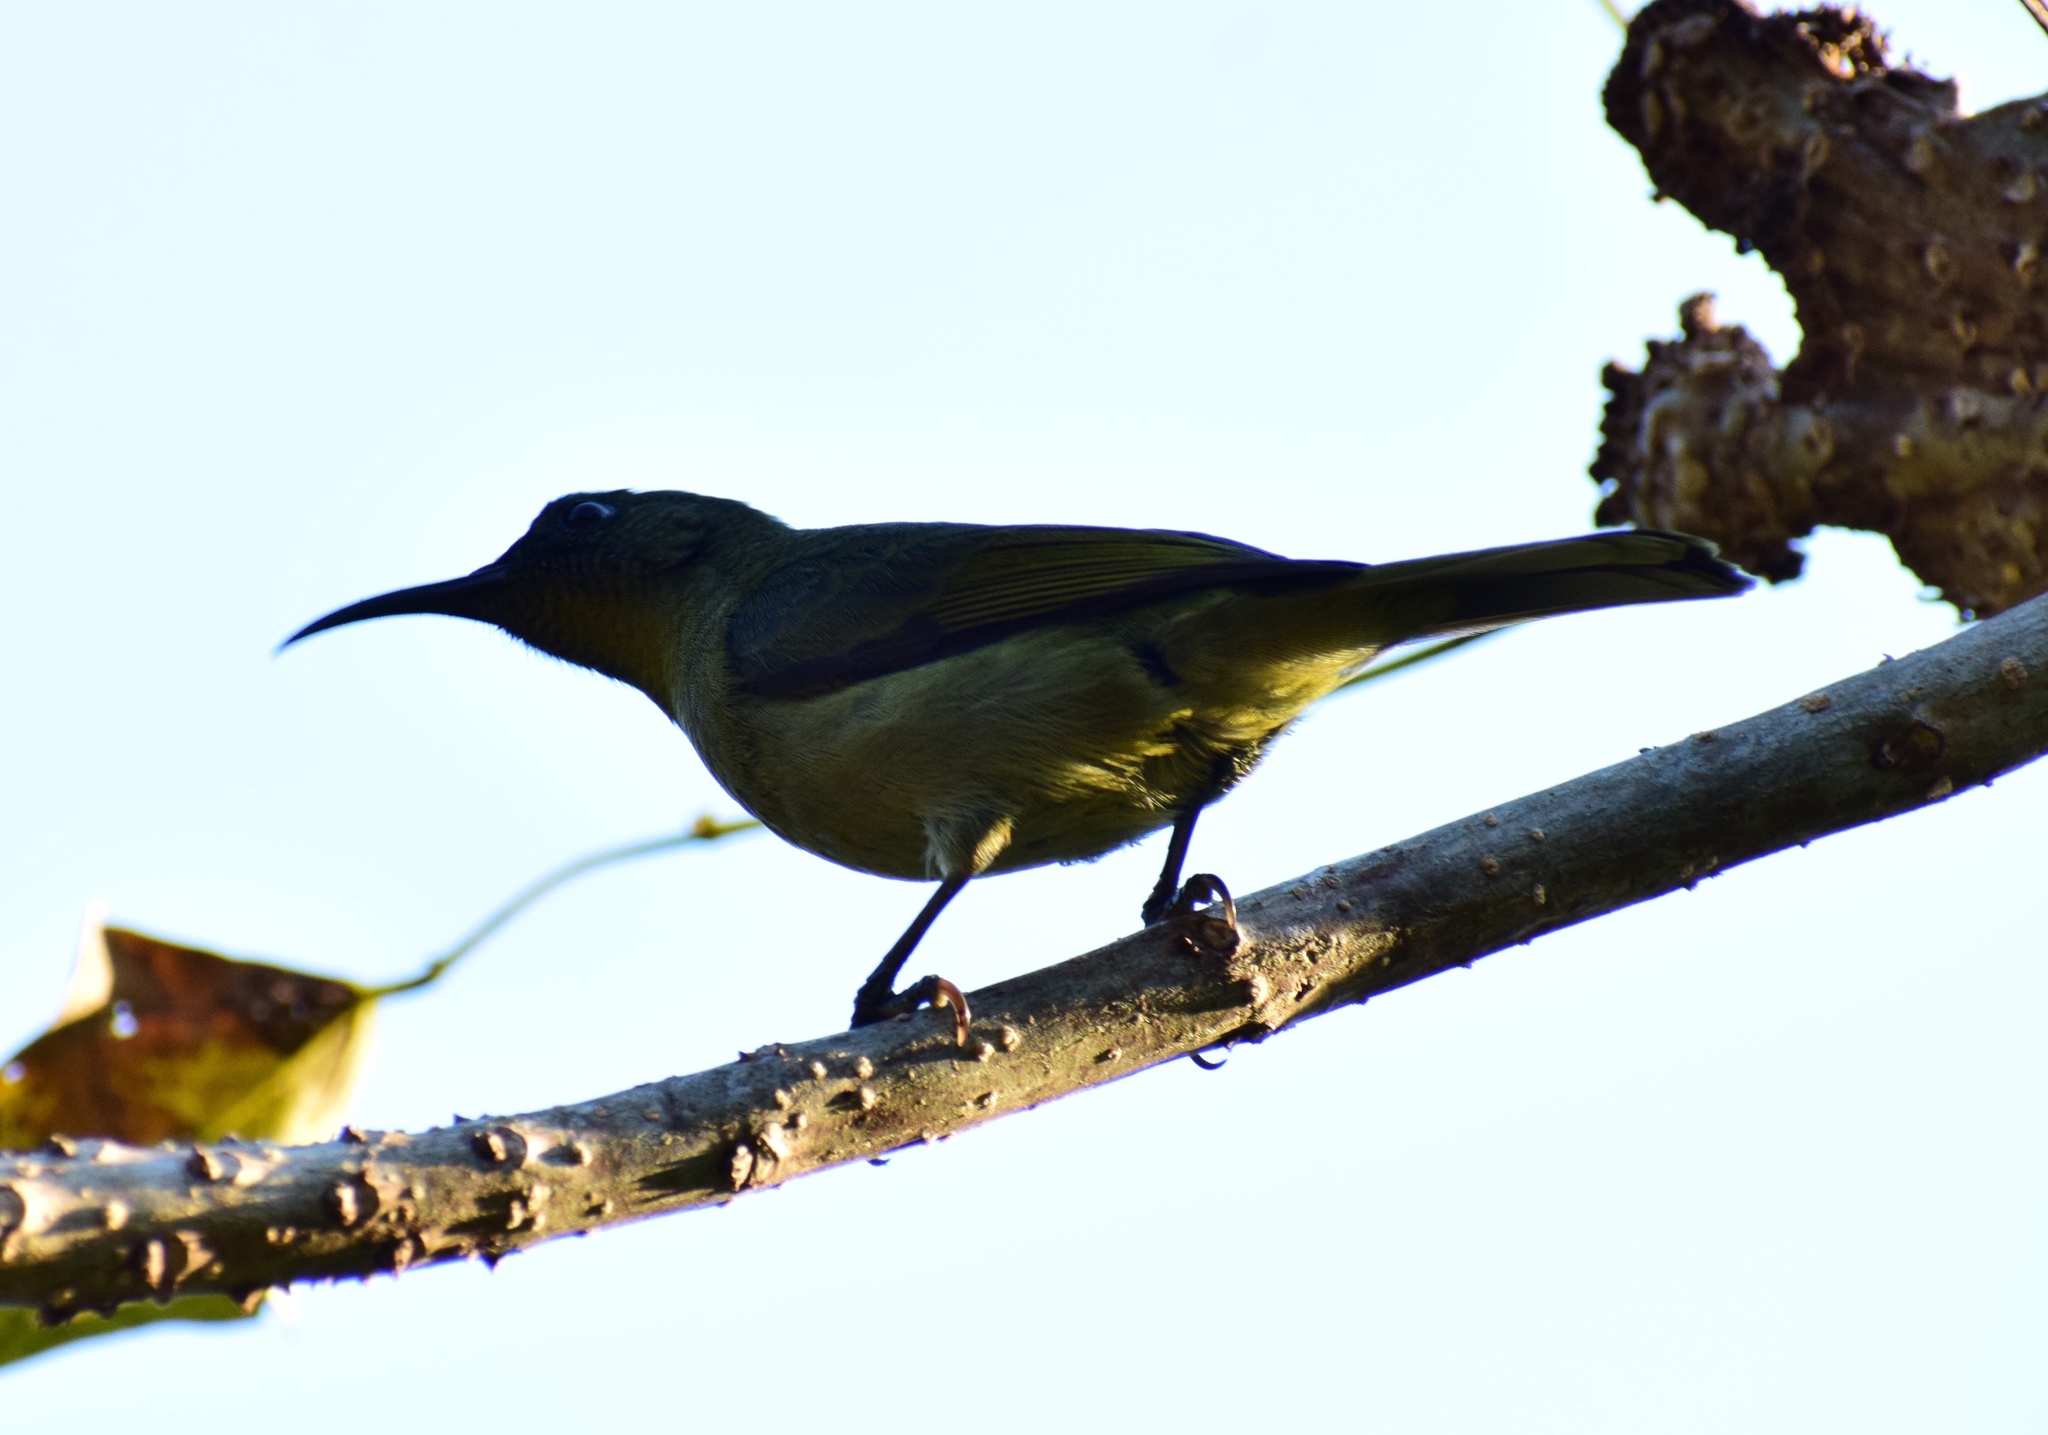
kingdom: Animalia
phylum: Chordata
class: Aves
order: Passeriformes
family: Nectariniidae
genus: Cyanomitra
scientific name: Cyanomitra olivacea
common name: Olive sunbird
